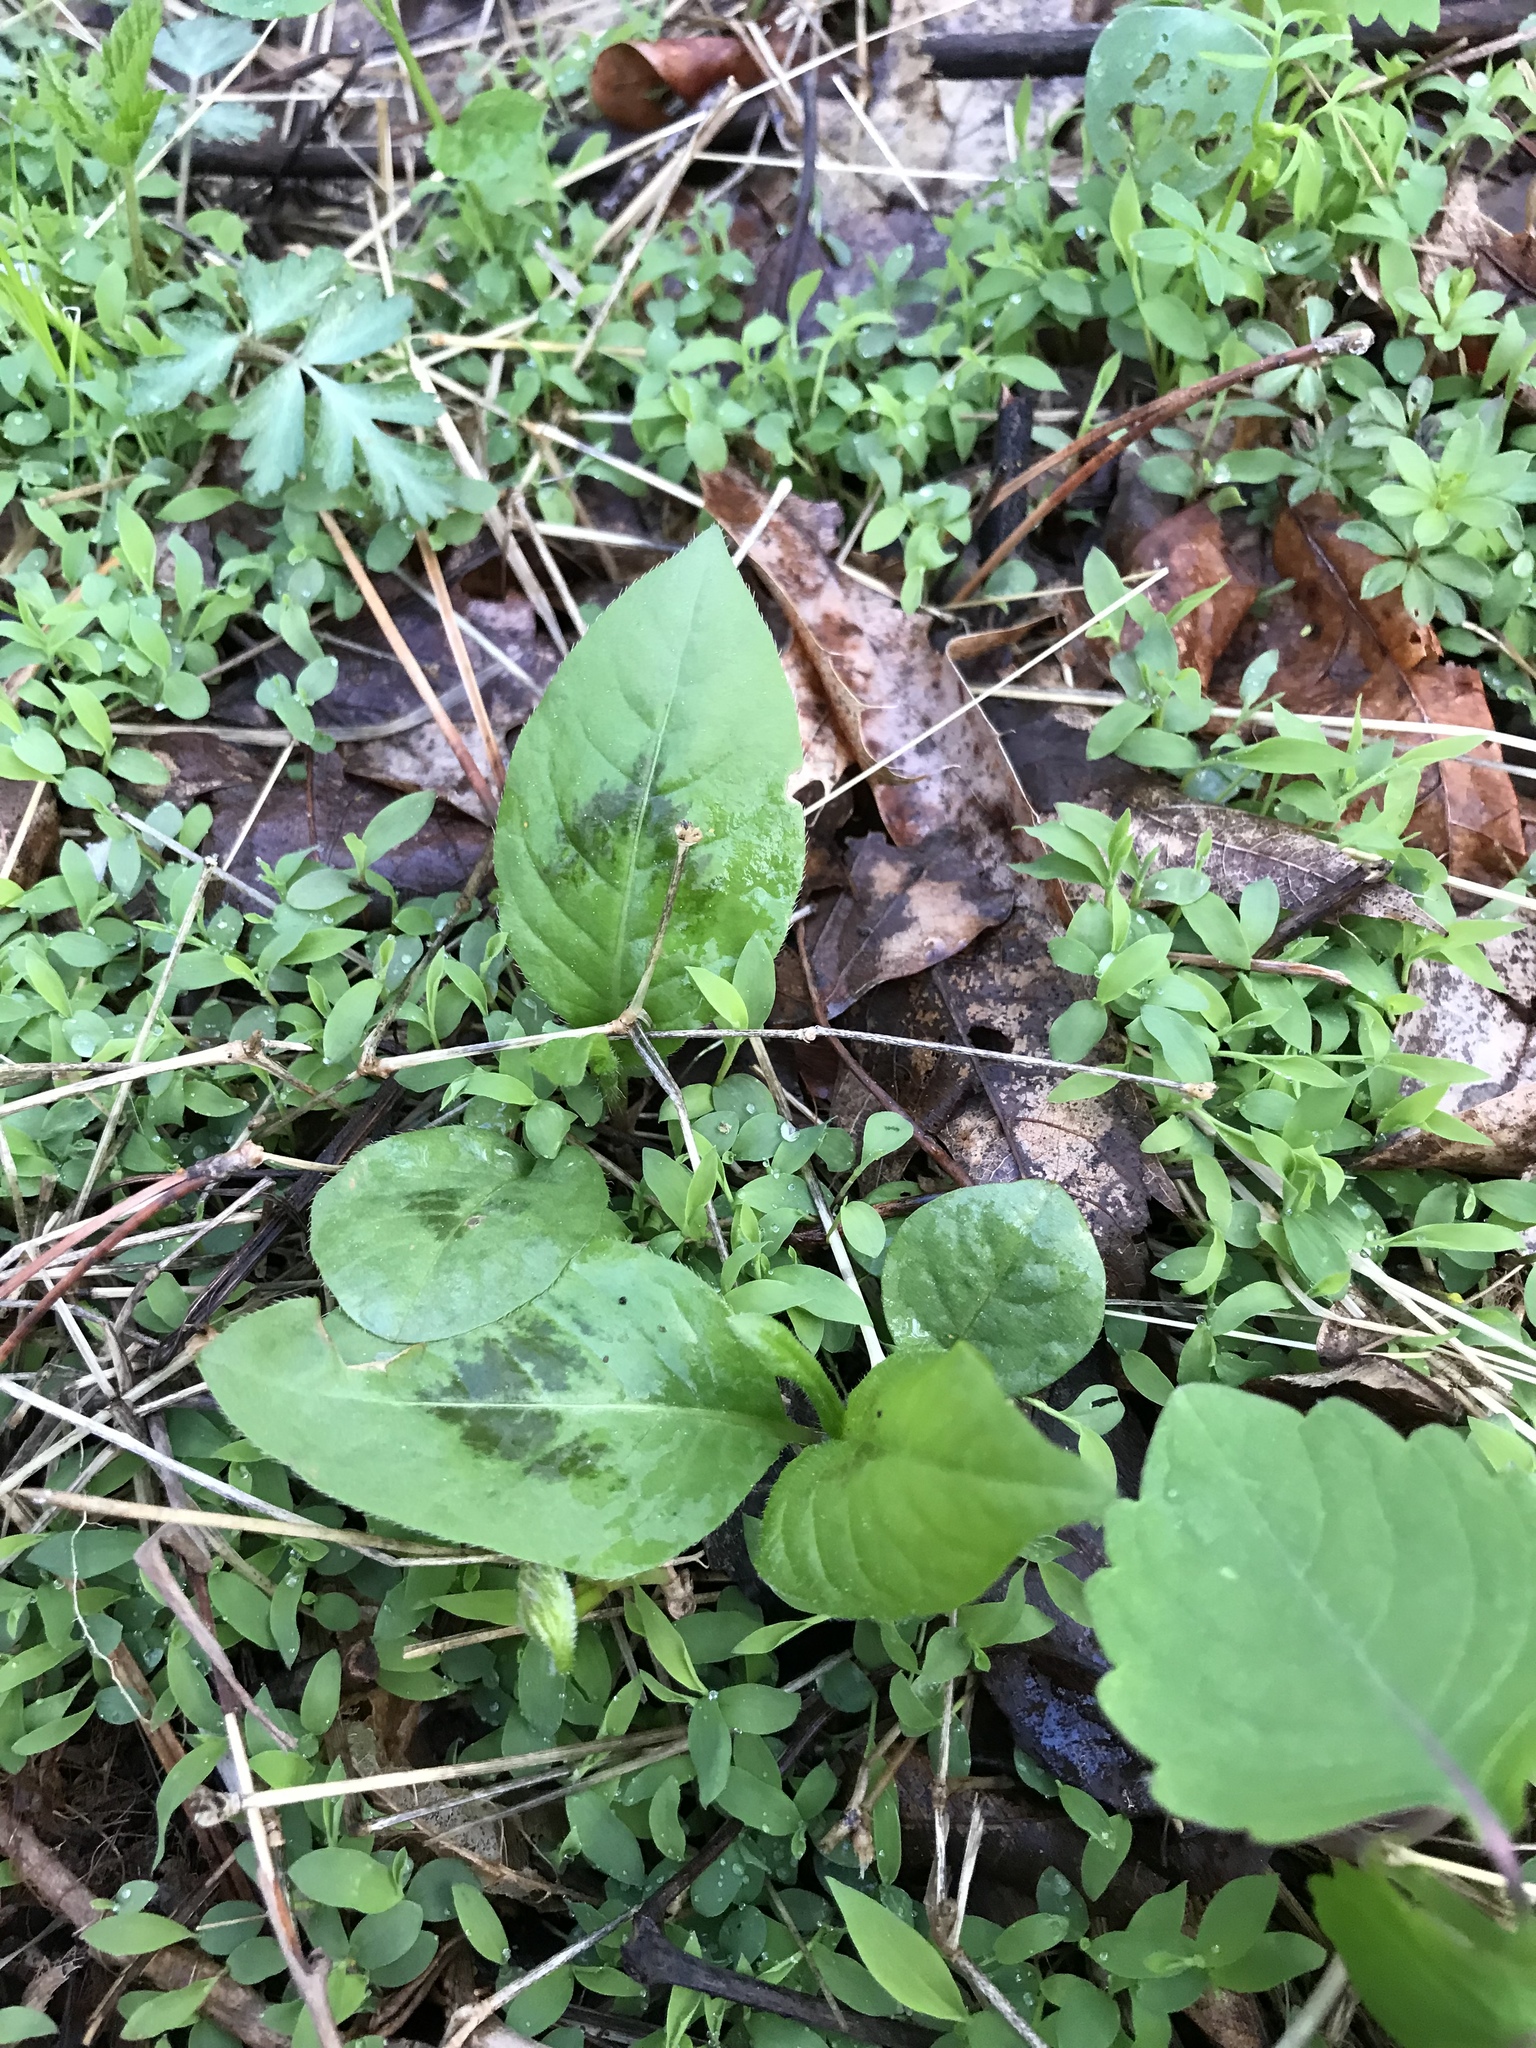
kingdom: Plantae
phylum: Tracheophyta
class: Magnoliopsida
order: Caryophyllales
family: Polygonaceae
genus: Persicaria
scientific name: Persicaria virginiana
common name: Jumpseed
